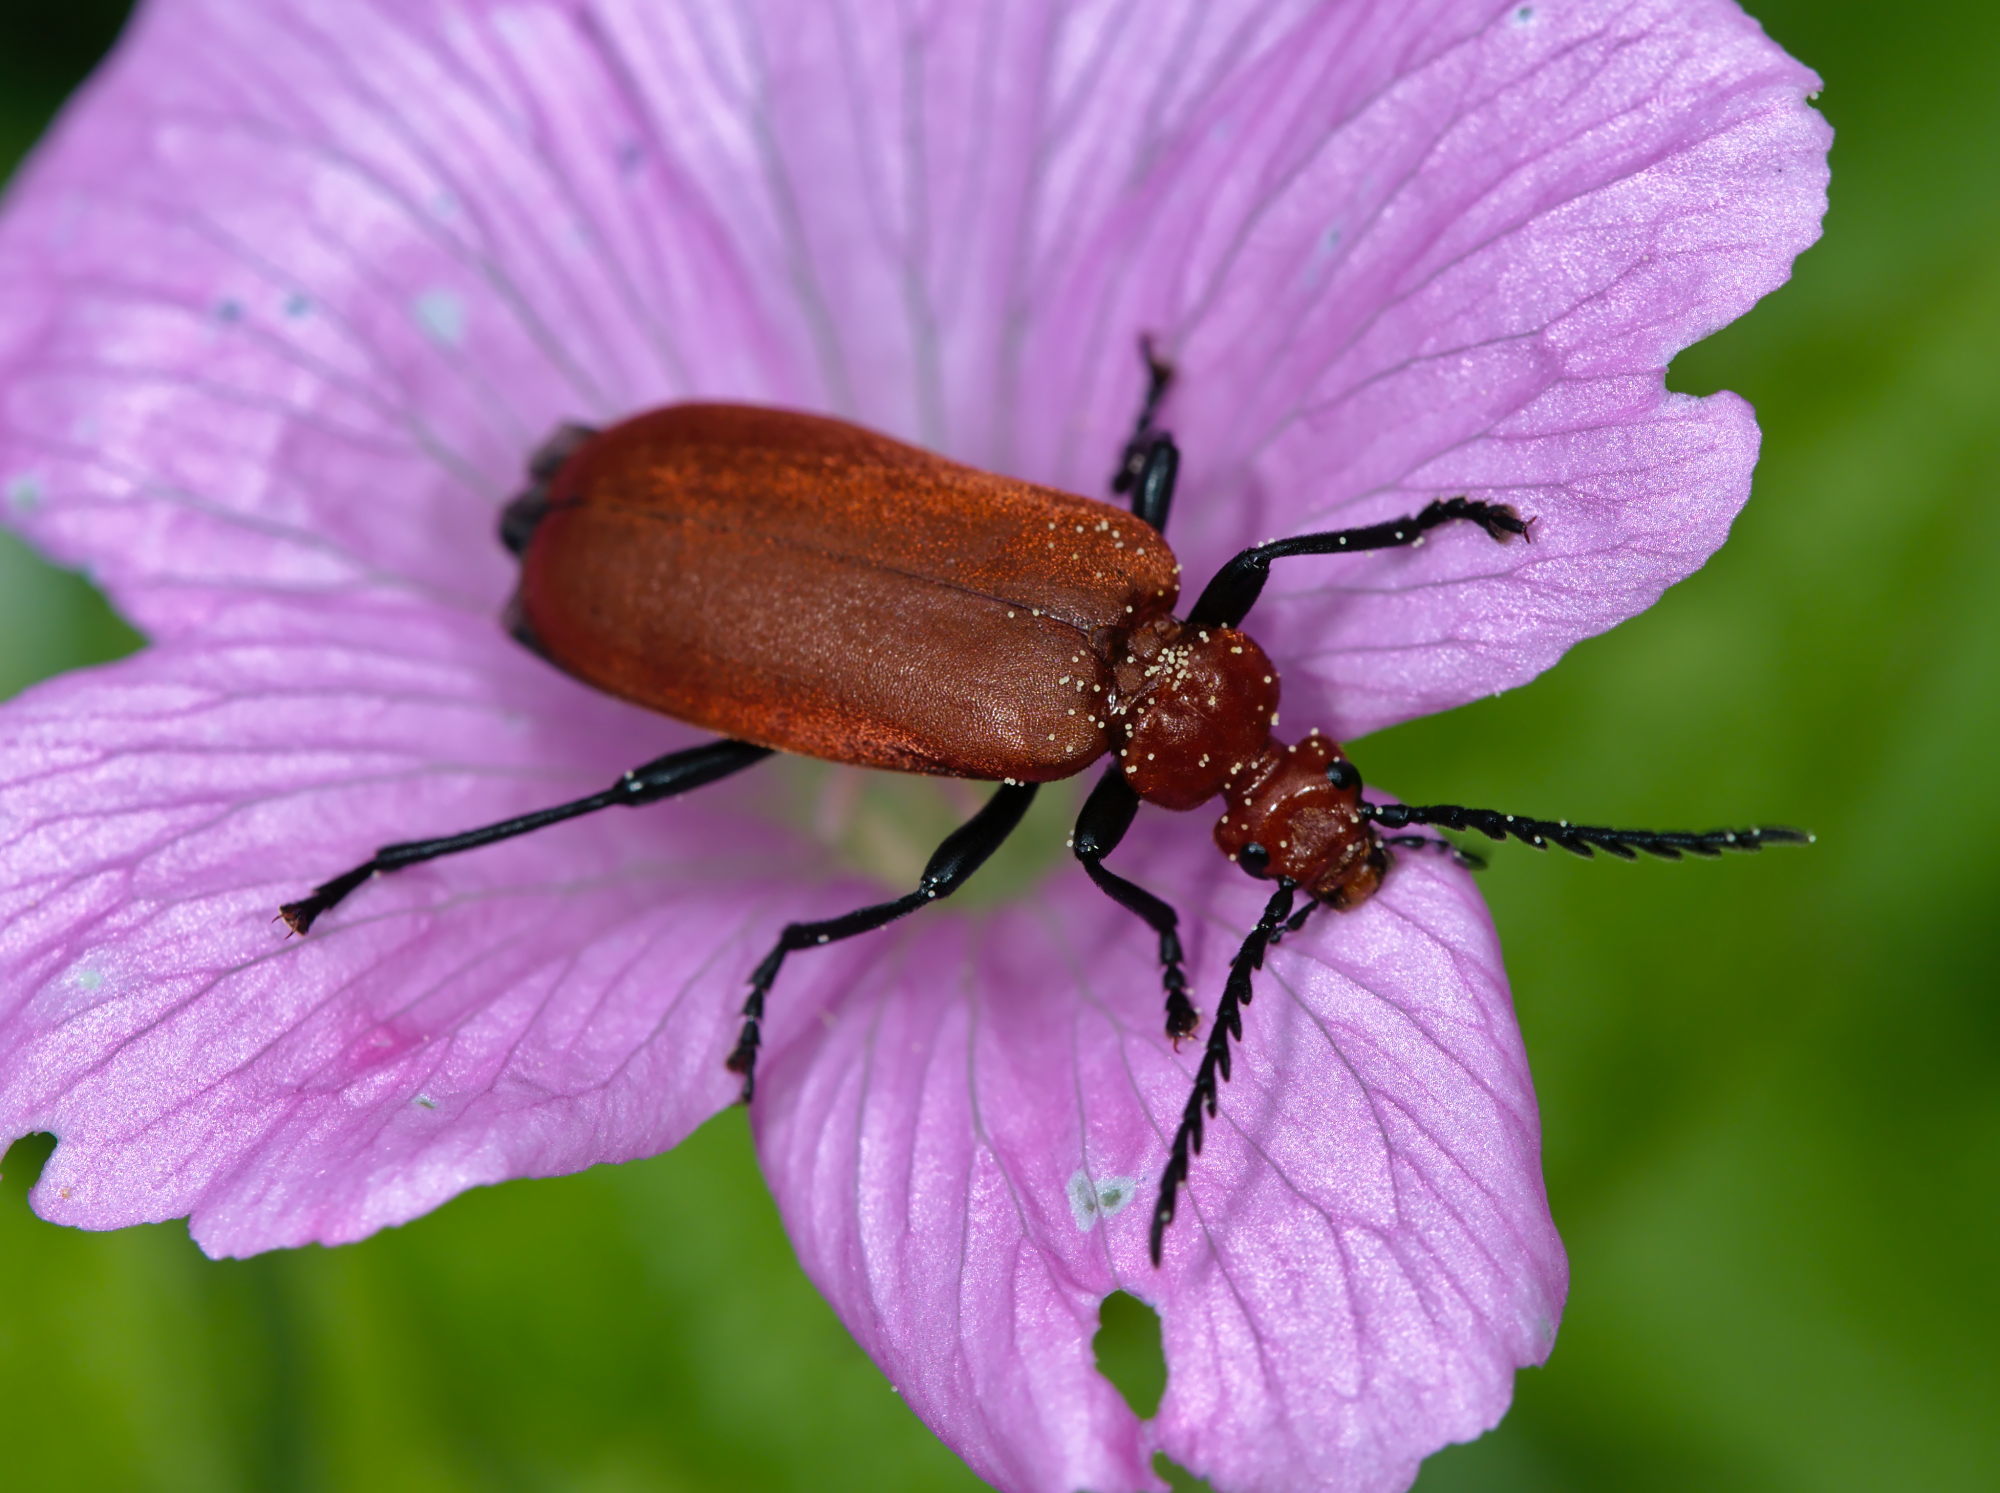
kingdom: Animalia
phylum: Arthropoda
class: Insecta
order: Coleoptera
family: Pyrochroidae
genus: Pyrochroa
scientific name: Pyrochroa serraticornis
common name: Red-headed cardinal beetle
